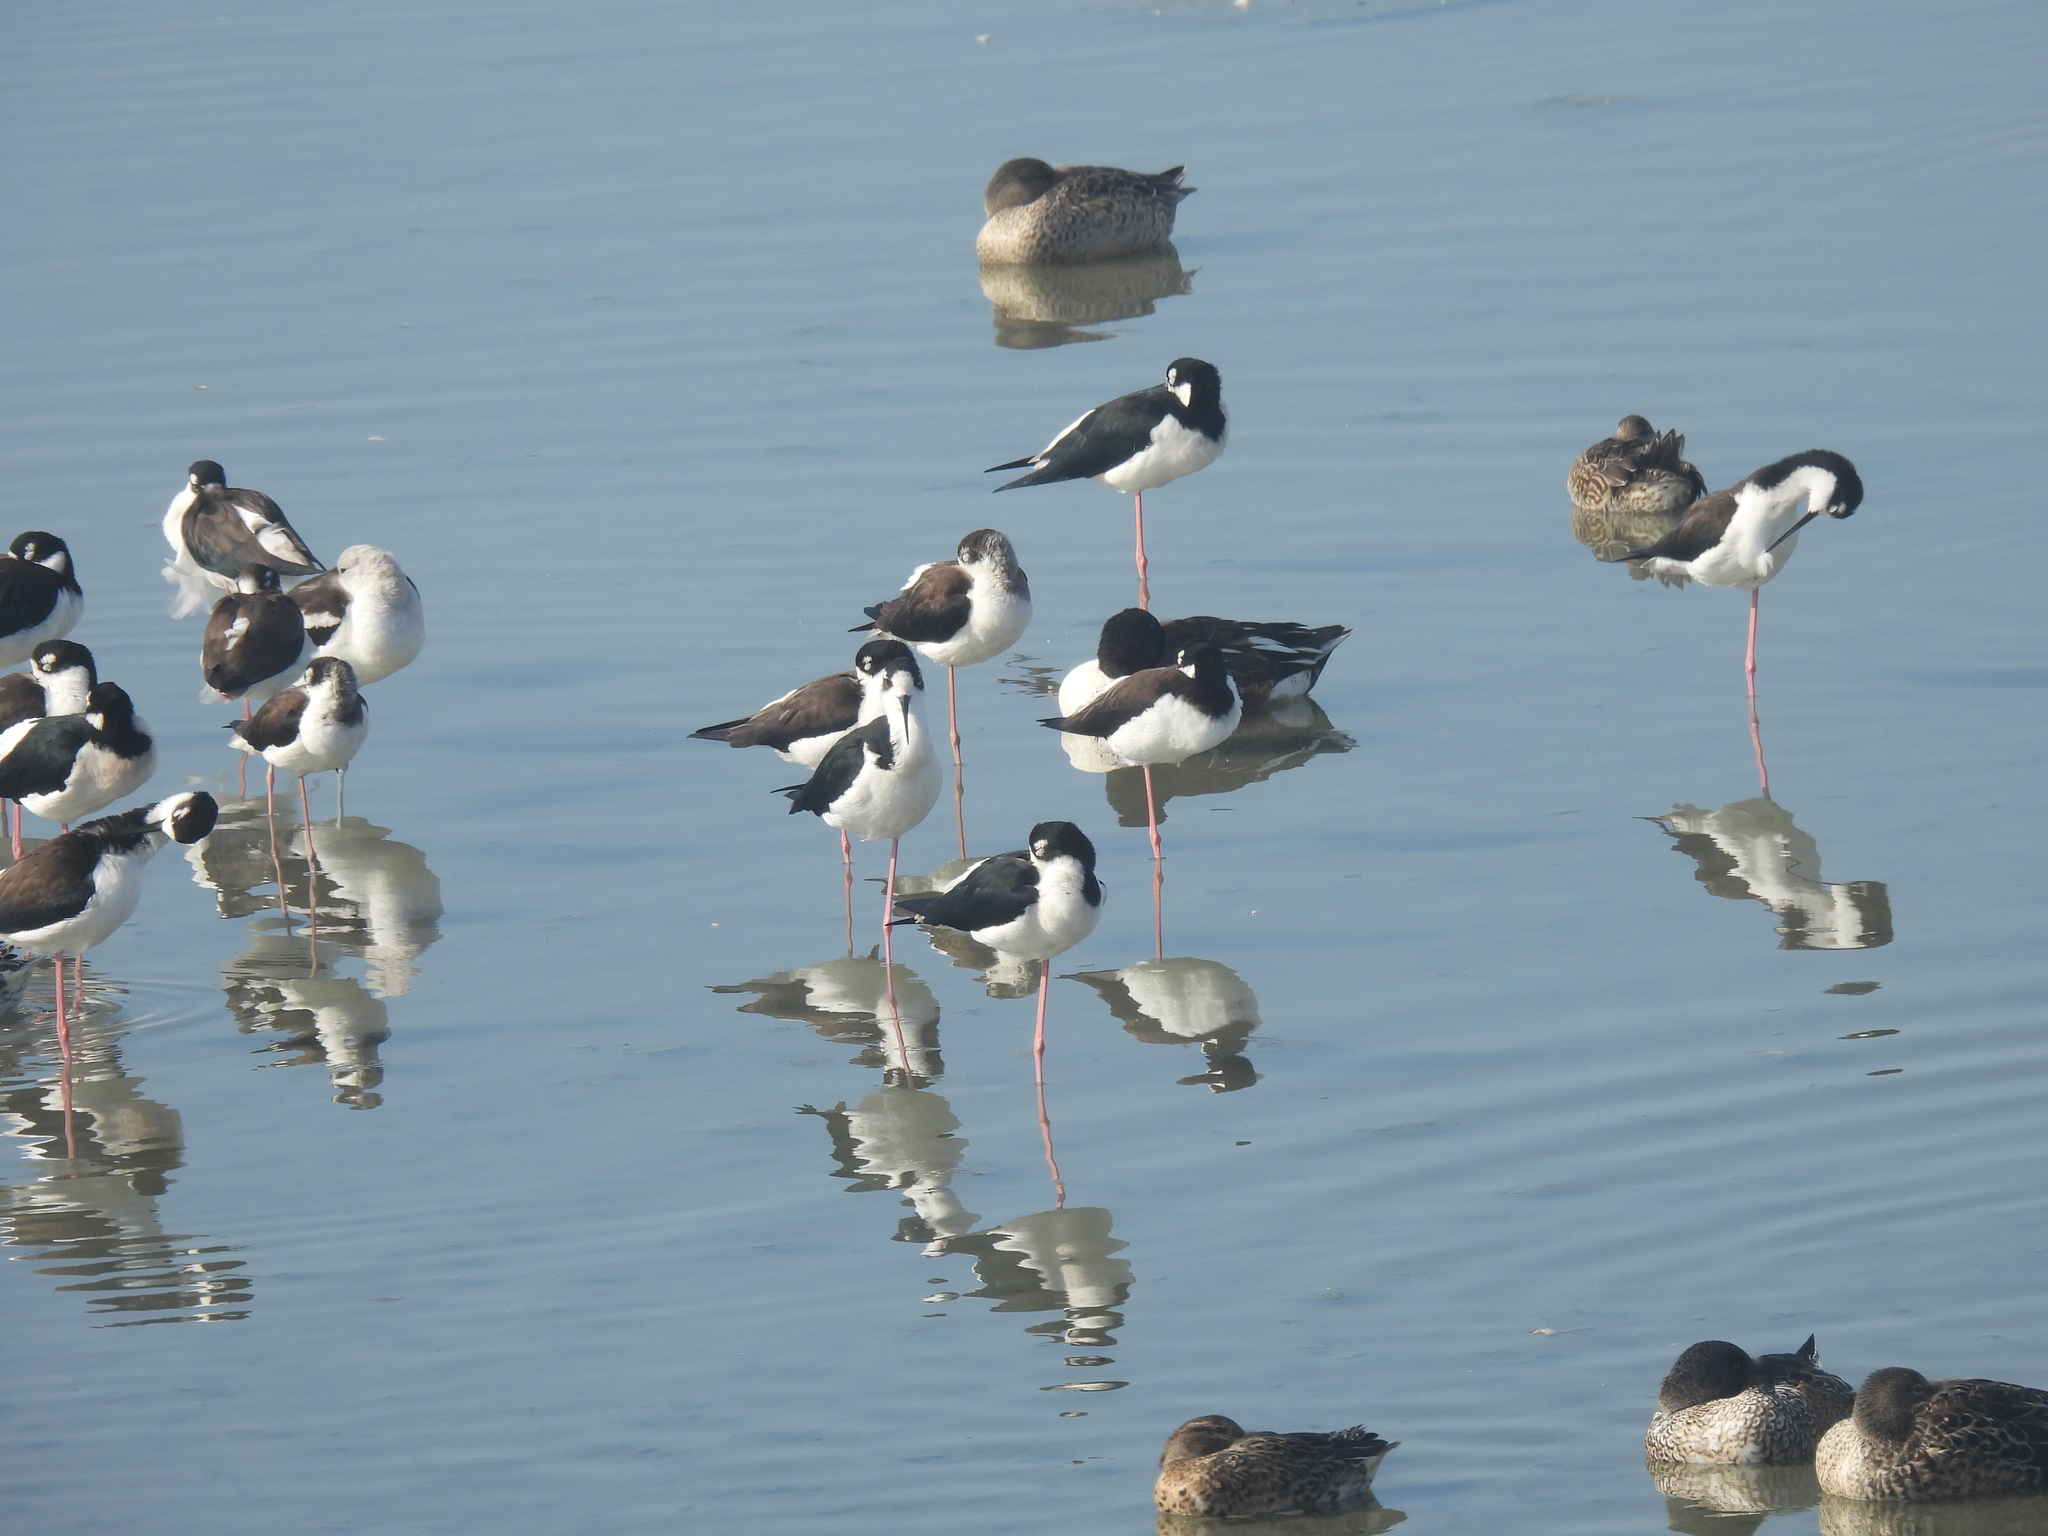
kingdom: Animalia
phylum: Chordata
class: Aves
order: Charadriiformes
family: Recurvirostridae
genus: Himantopus
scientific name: Himantopus mexicanus
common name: Black-necked stilt
